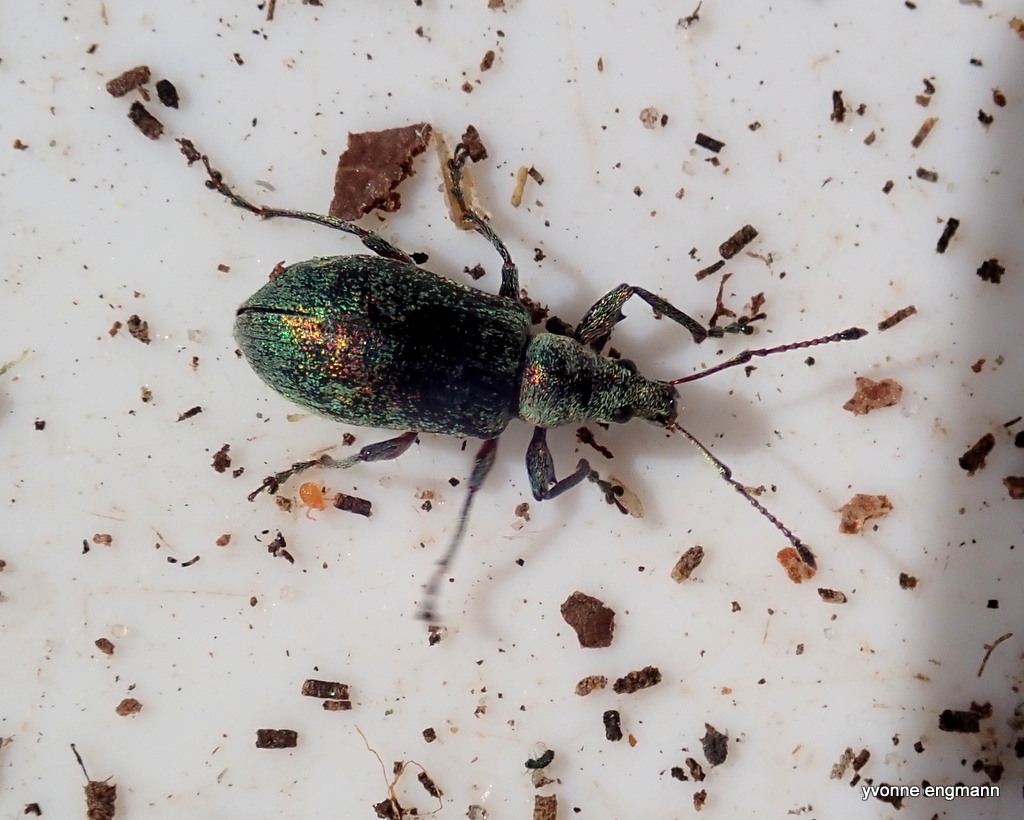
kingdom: Animalia
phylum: Arthropoda
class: Insecta
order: Coleoptera
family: Curculionidae
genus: Phyllobius
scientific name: Phyllobius pomaceus
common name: Green nettle weevil
